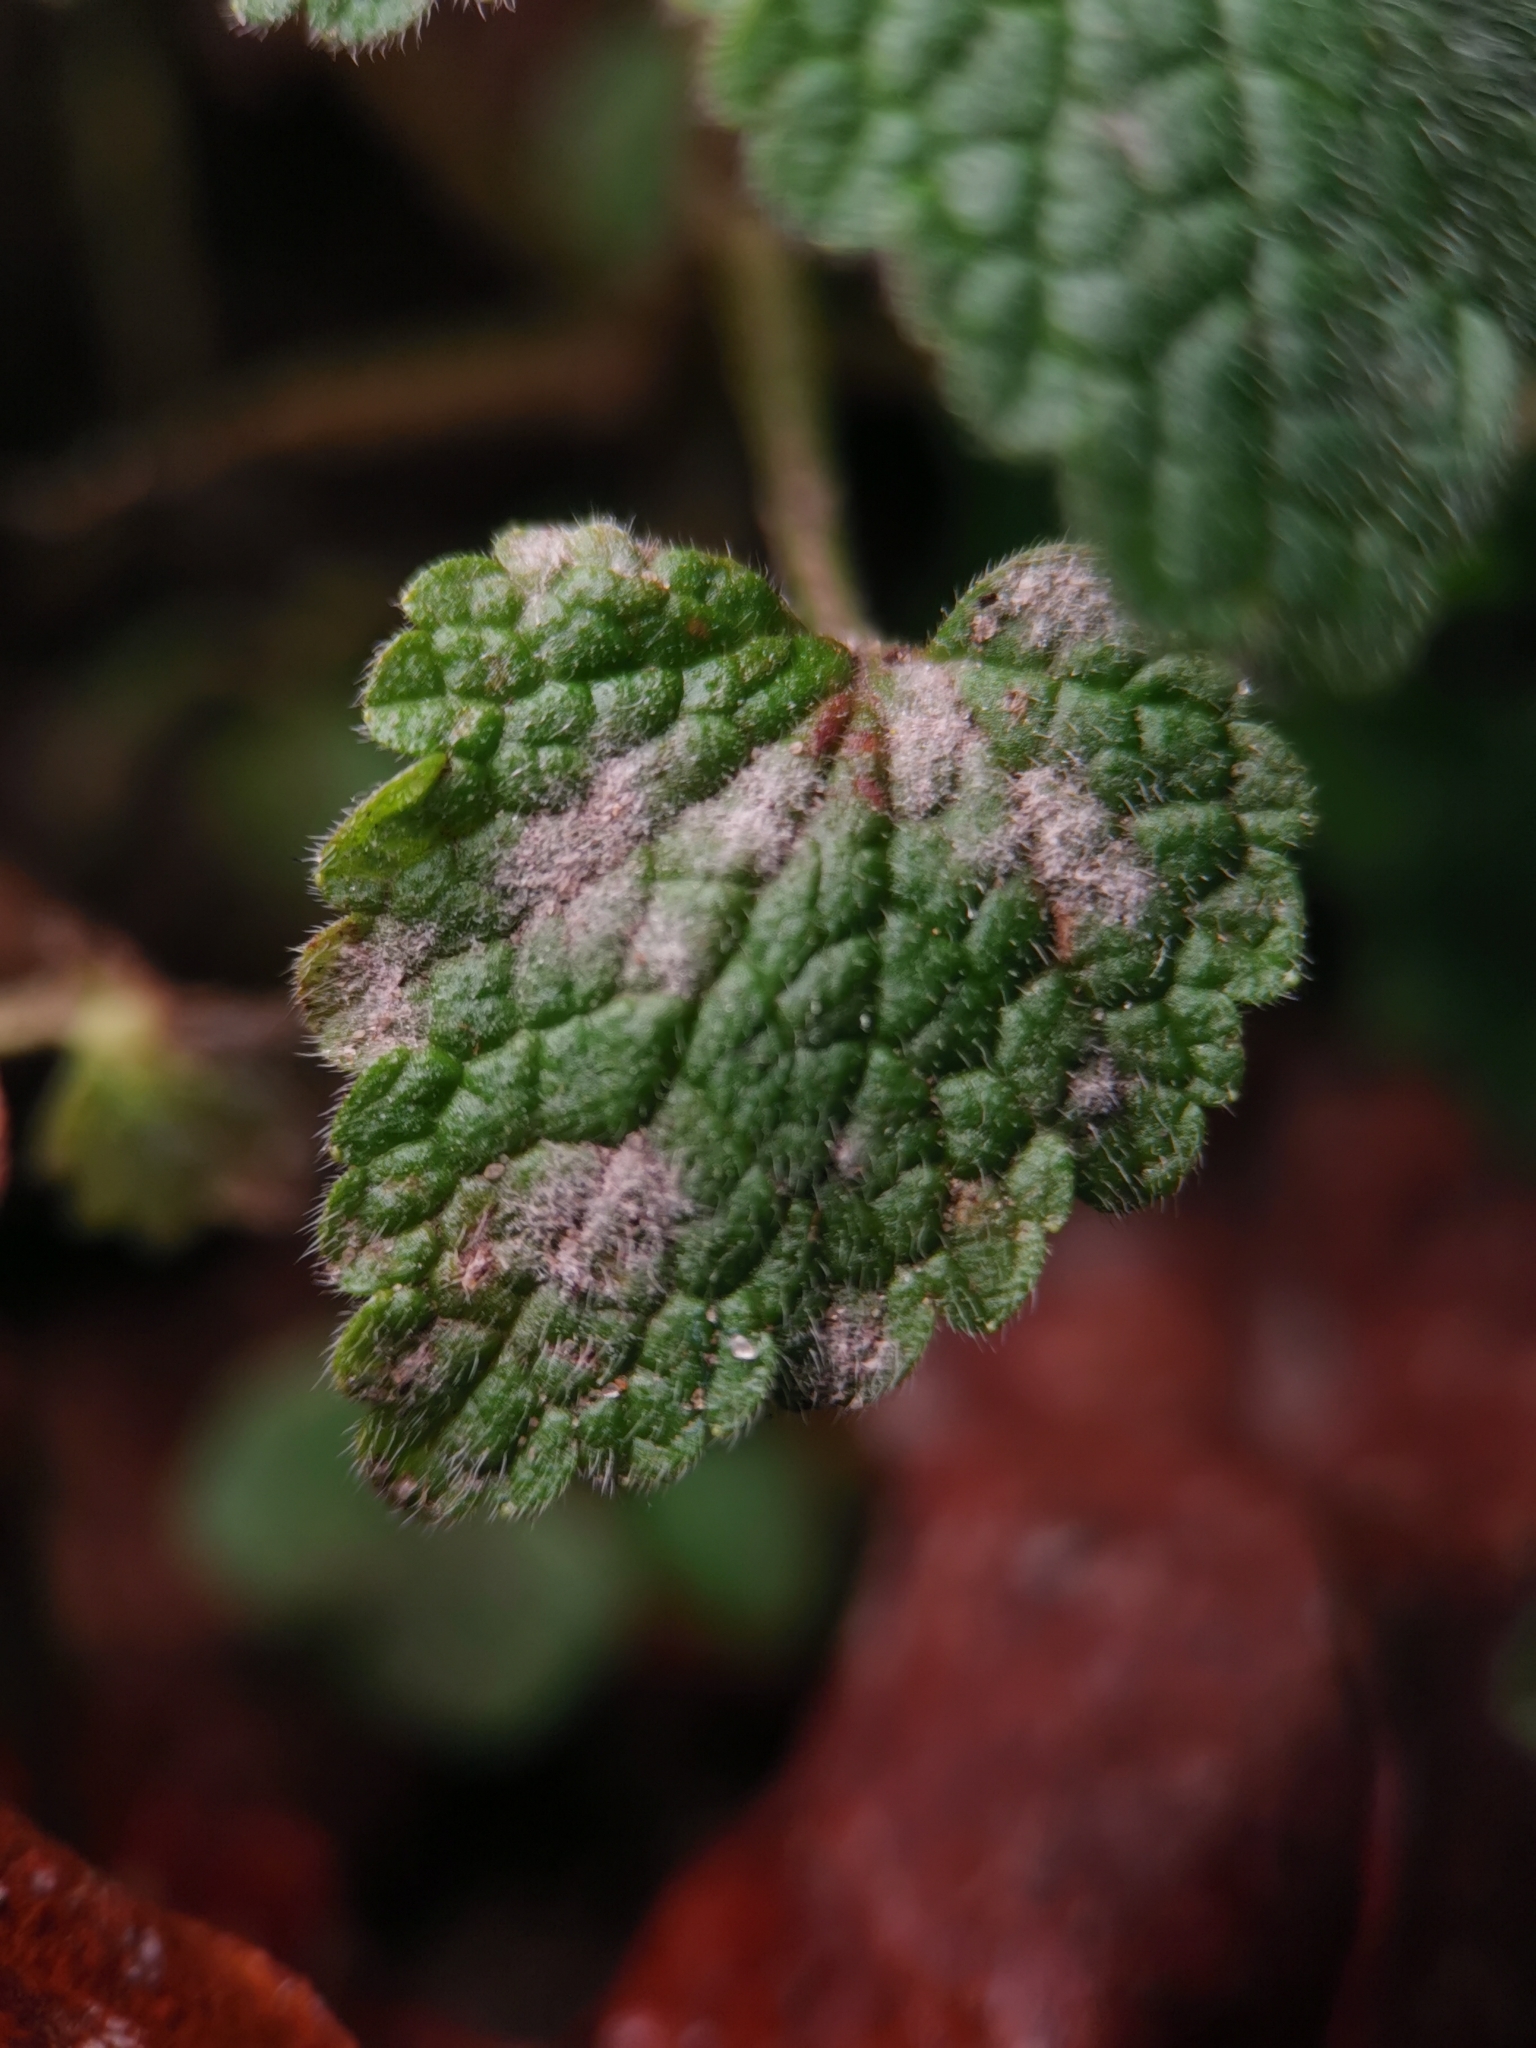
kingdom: Fungi
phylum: Ascomycota
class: Leotiomycetes
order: Helotiales
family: Erysiphaceae
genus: Neoerysiphe
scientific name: Neoerysiphe galeopsidis
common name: Mint mildew
